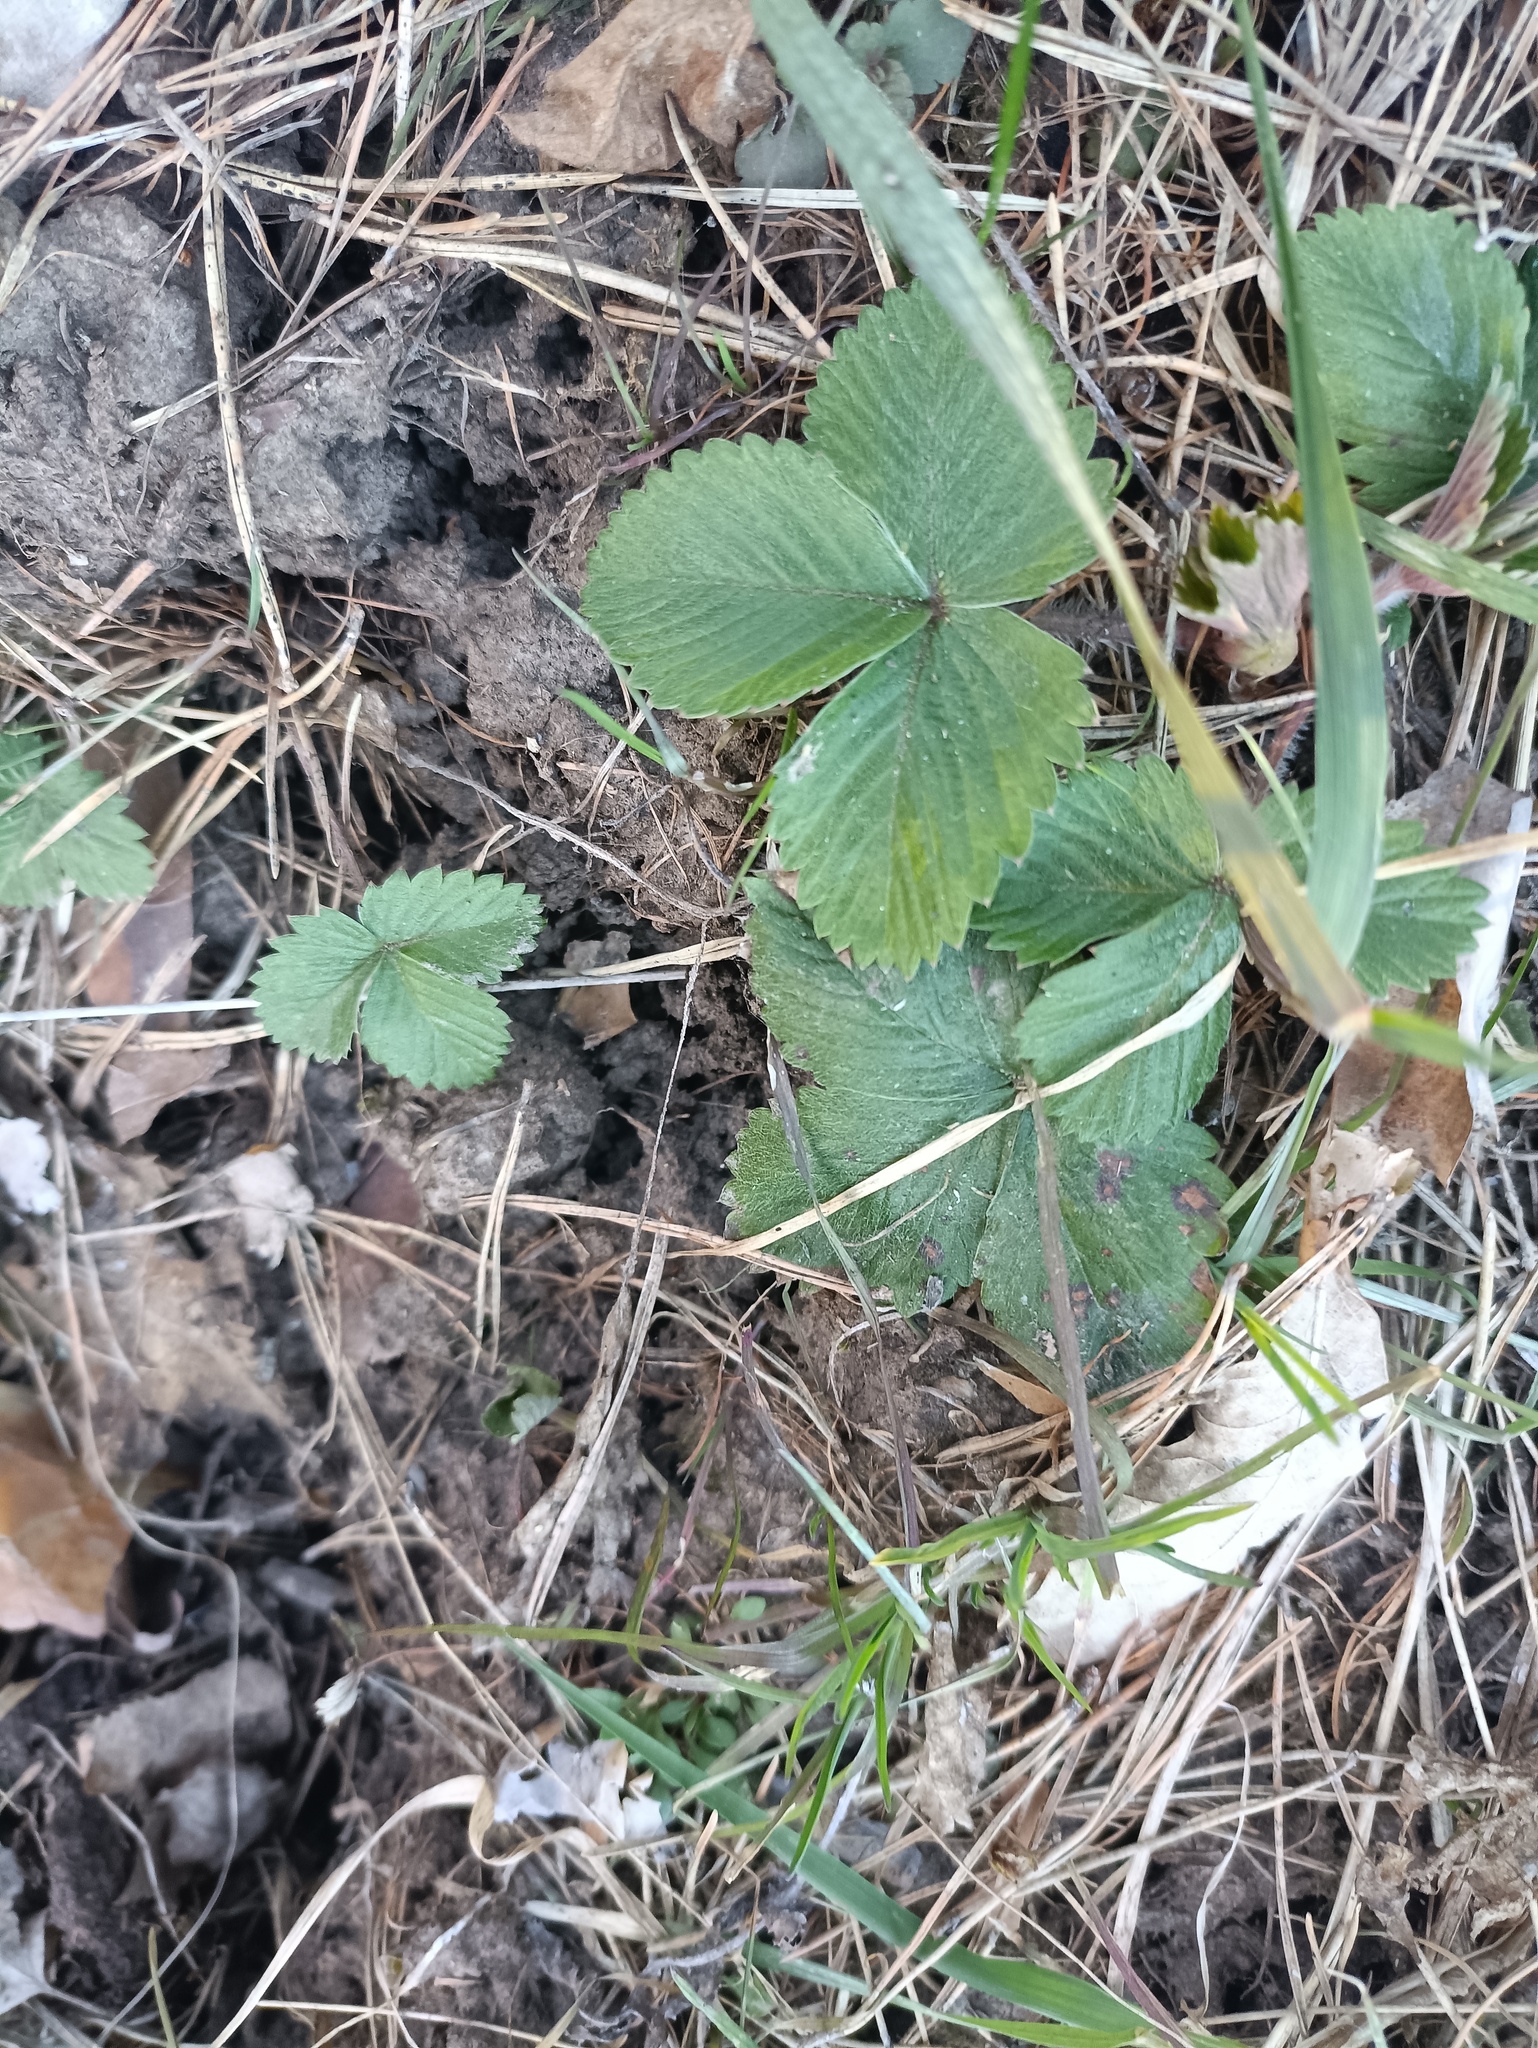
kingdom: Plantae
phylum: Tracheophyta
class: Magnoliopsida
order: Rosales
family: Rosaceae
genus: Fragaria
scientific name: Fragaria vesca
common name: Wild strawberry
